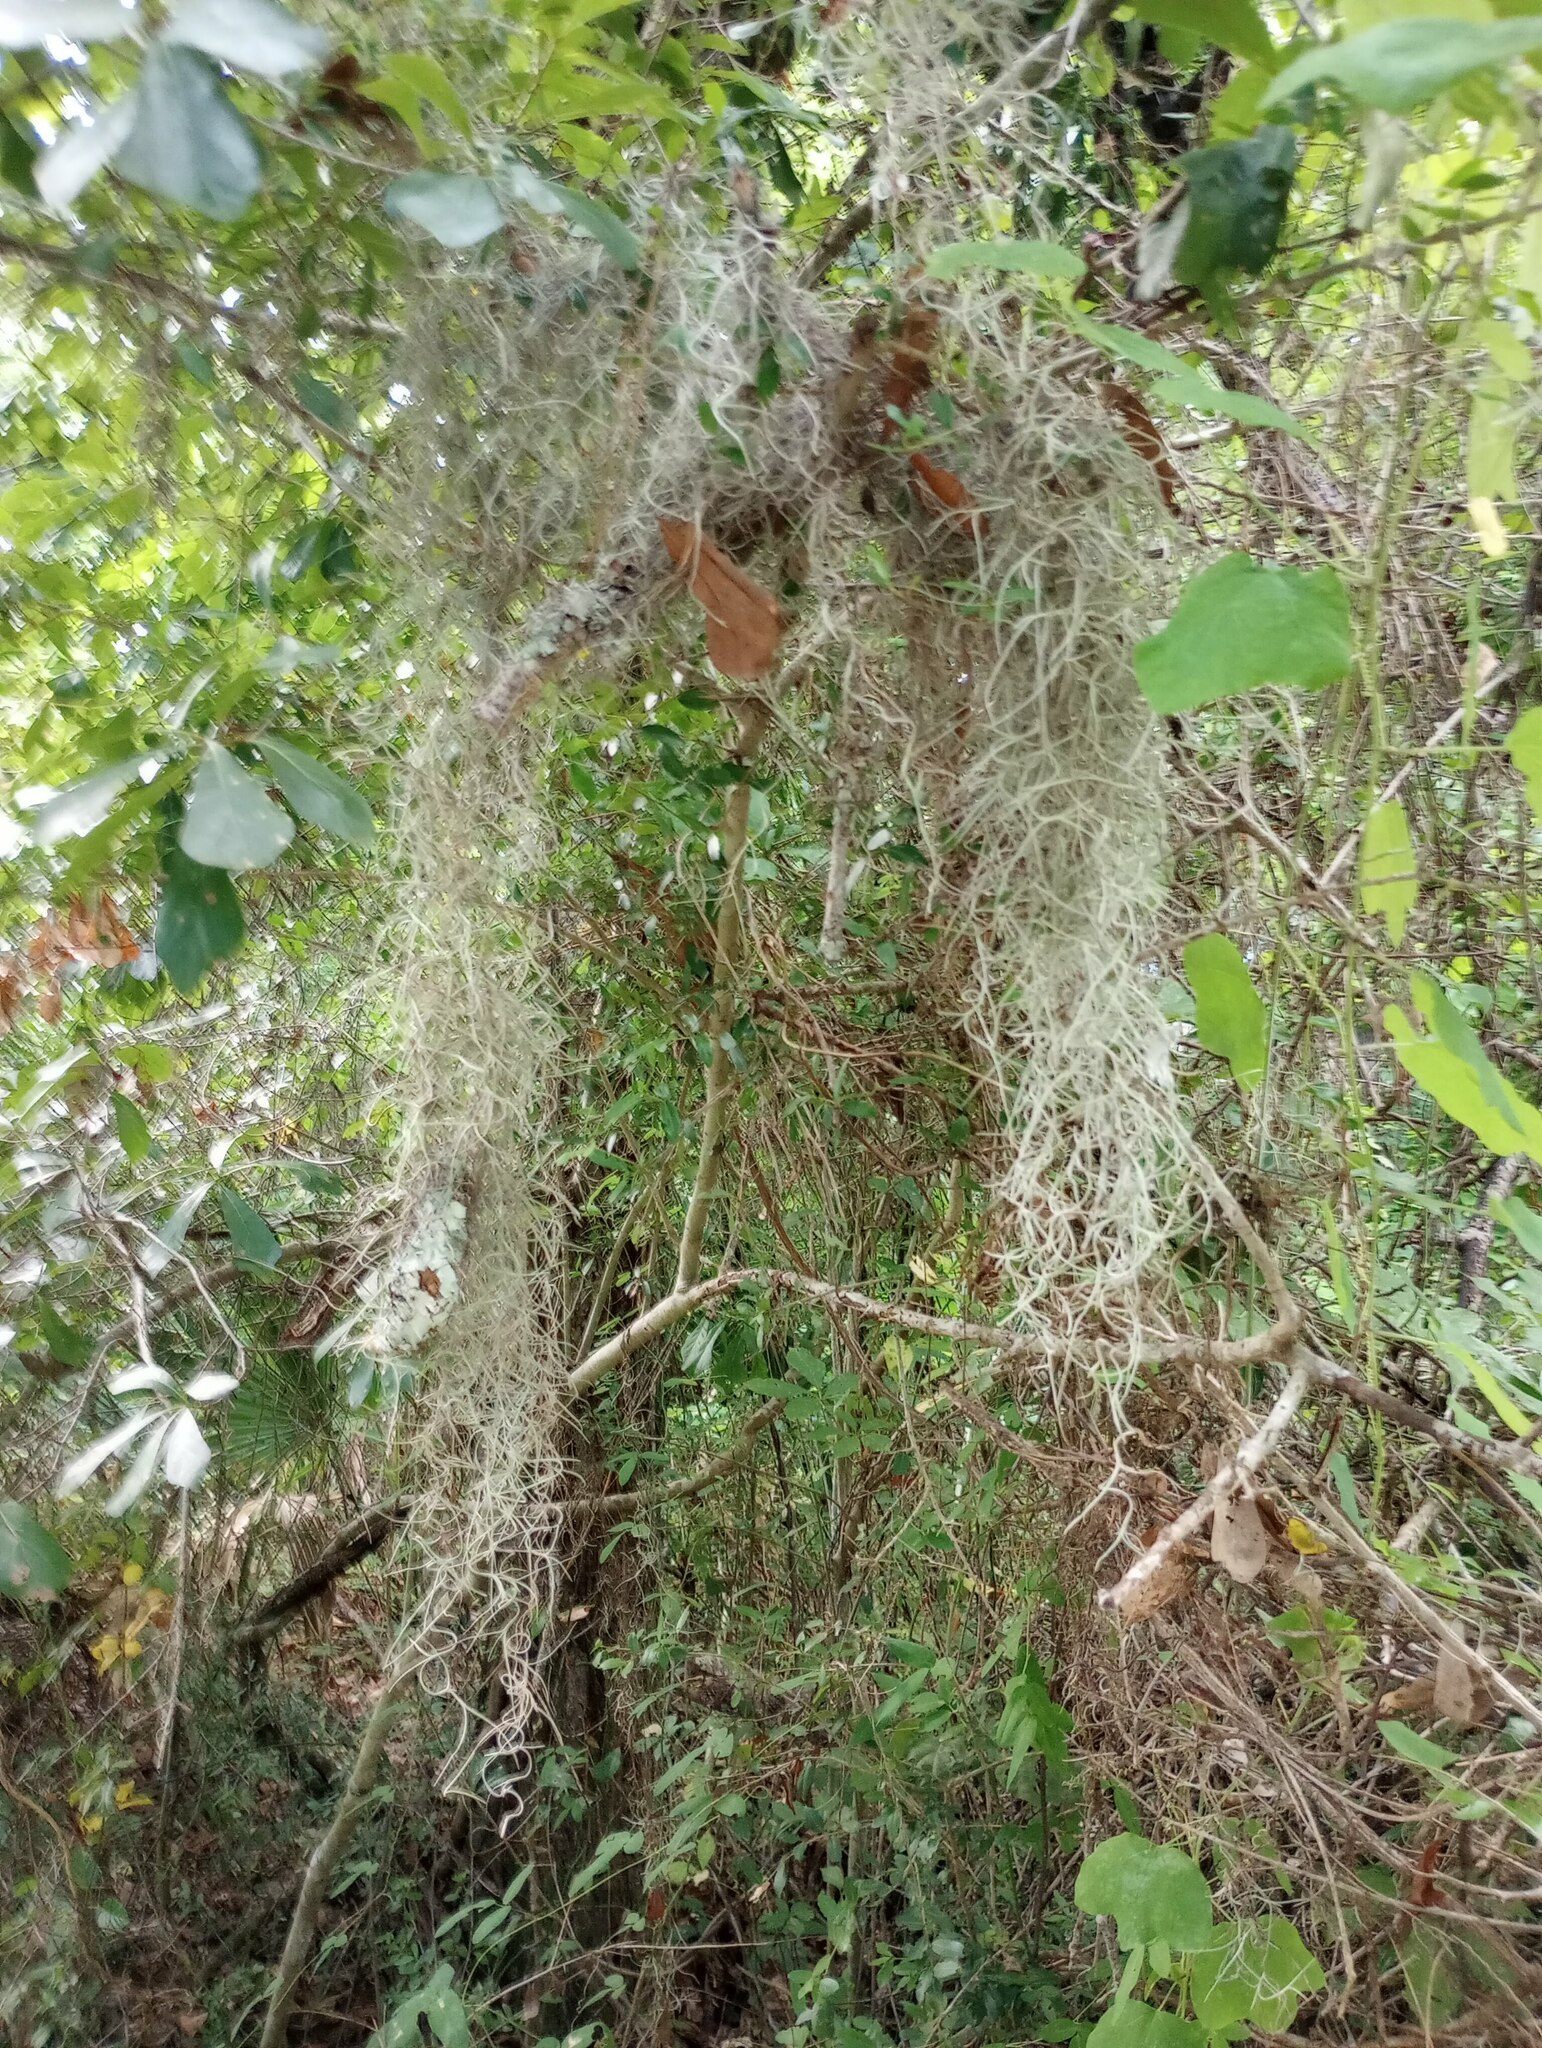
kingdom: Plantae
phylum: Tracheophyta
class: Liliopsida
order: Poales
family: Bromeliaceae
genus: Tillandsia
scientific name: Tillandsia usneoides
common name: Spanish moss
